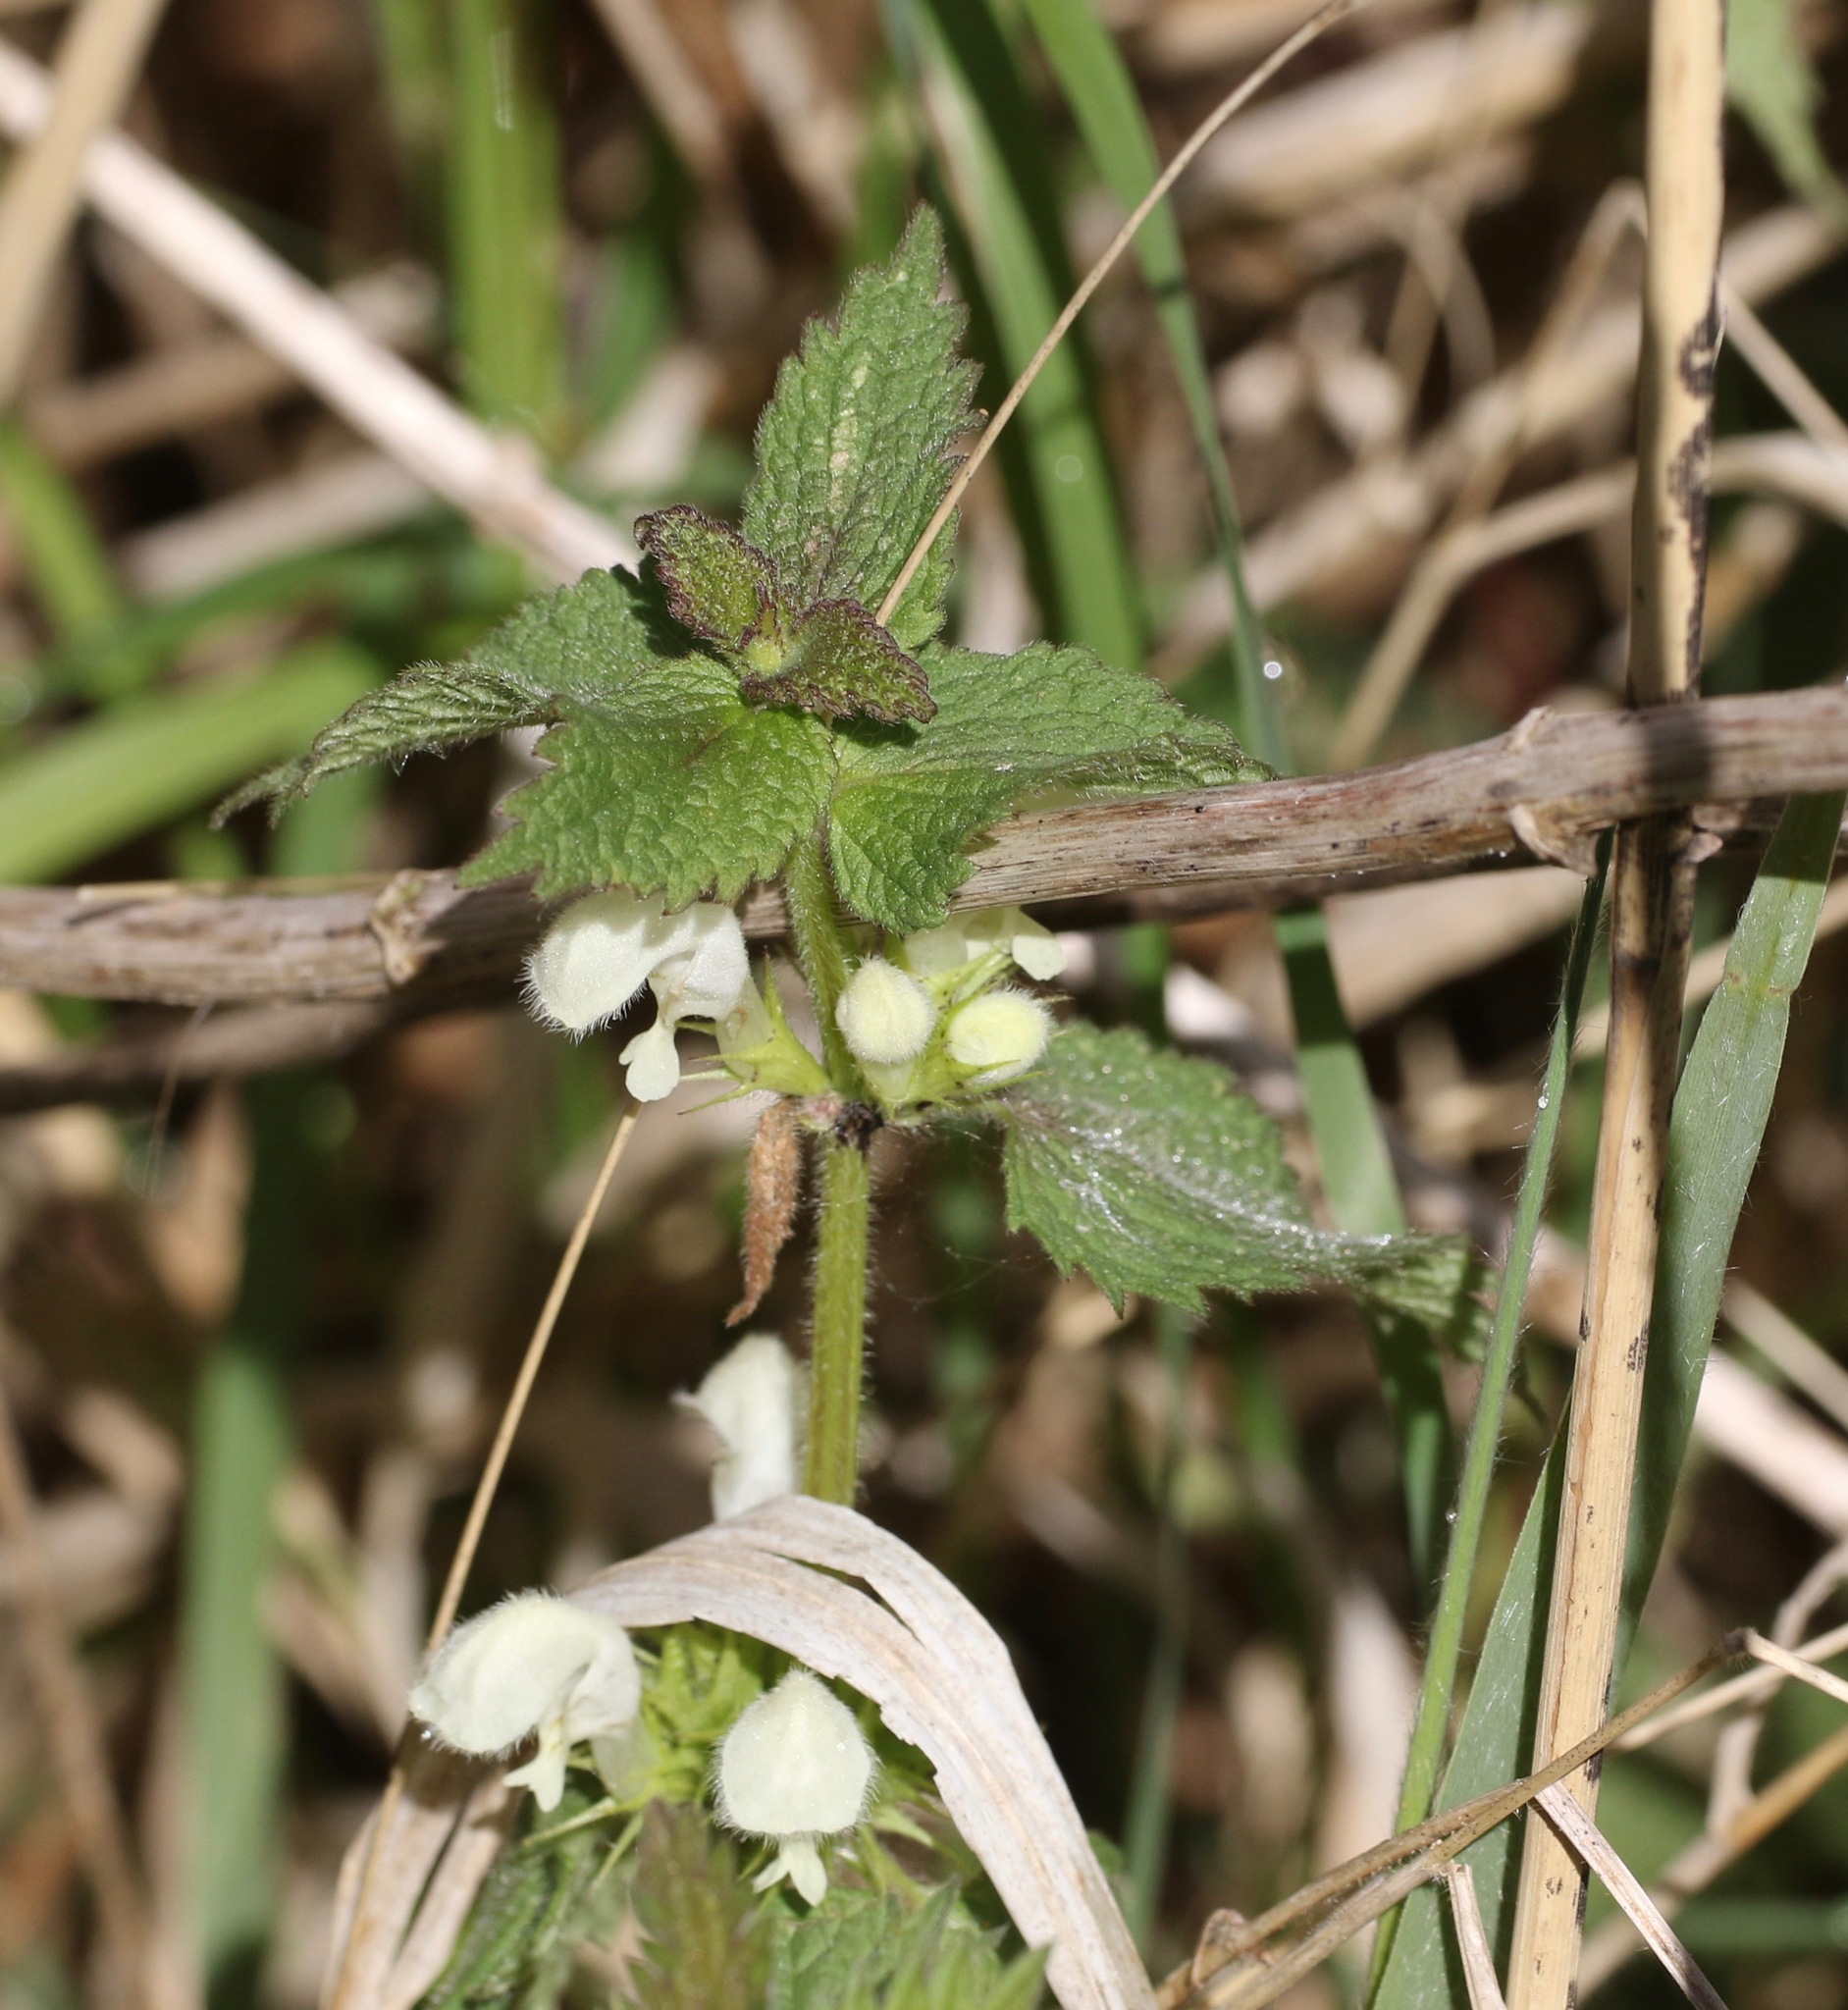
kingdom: Plantae
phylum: Tracheophyta
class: Magnoliopsida
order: Lamiales
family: Lamiaceae
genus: Lamium
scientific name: Lamium album
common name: White dead-nettle
